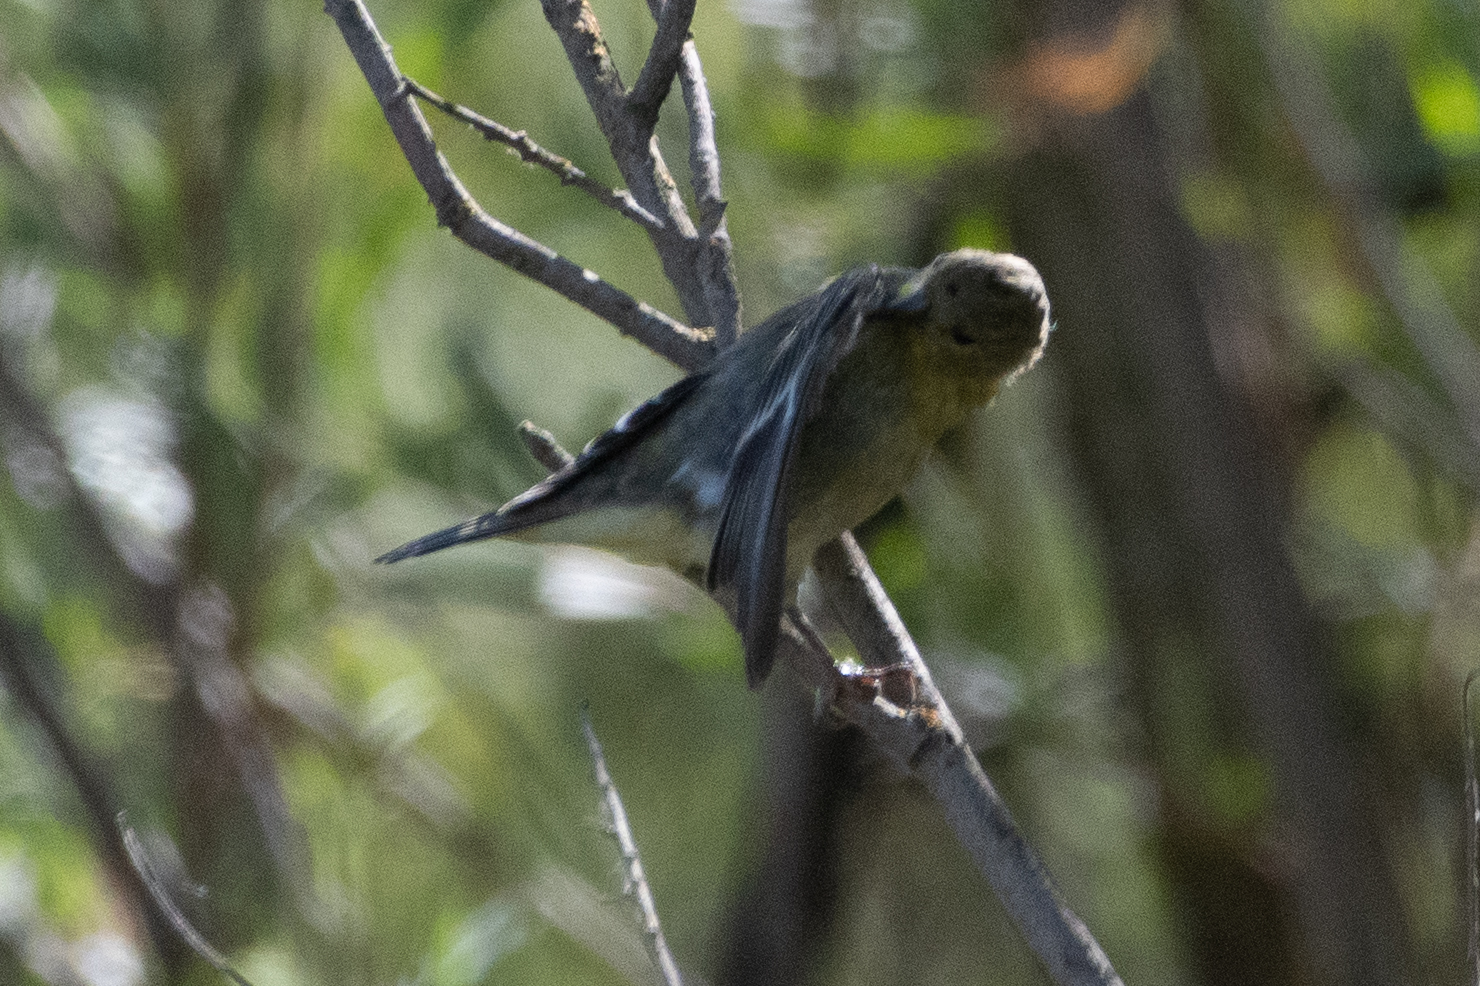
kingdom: Animalia
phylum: Chordata
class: Aves
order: Passeriformes
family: Fringillidae
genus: Spinus
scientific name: Spinus psaltria
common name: Lesser goldfinch
